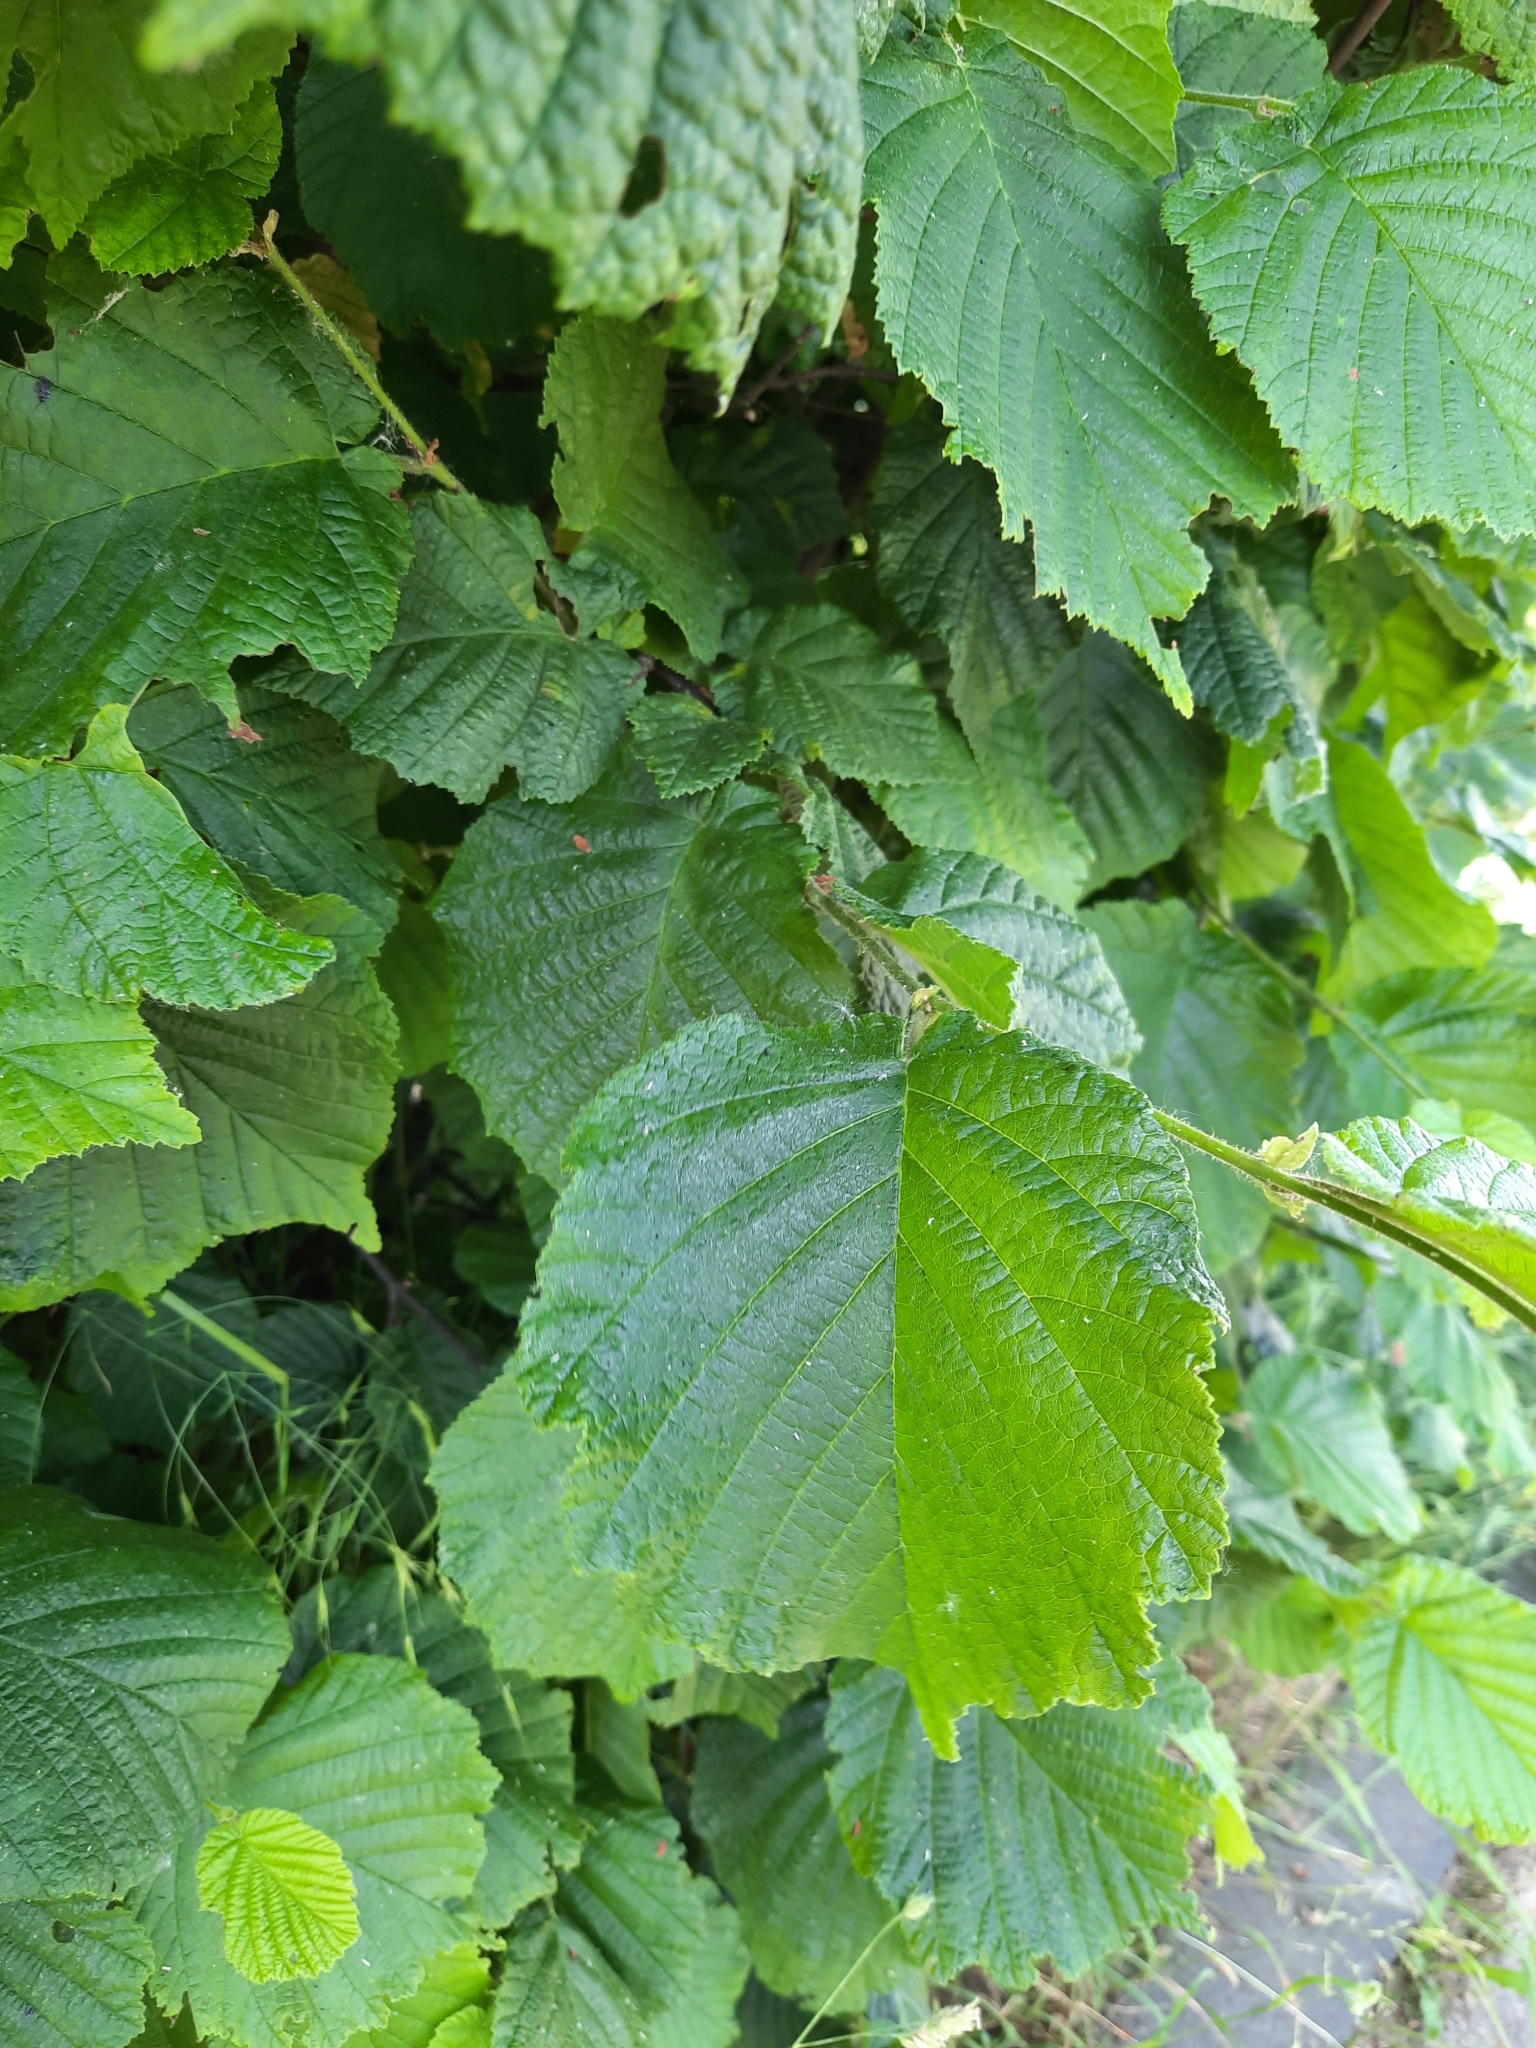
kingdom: Plantae
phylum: Tracheophyta
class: Magnoliopsida
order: Fagales
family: Betulaceae
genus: Corylus
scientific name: Corylus avellana
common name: European hazel
